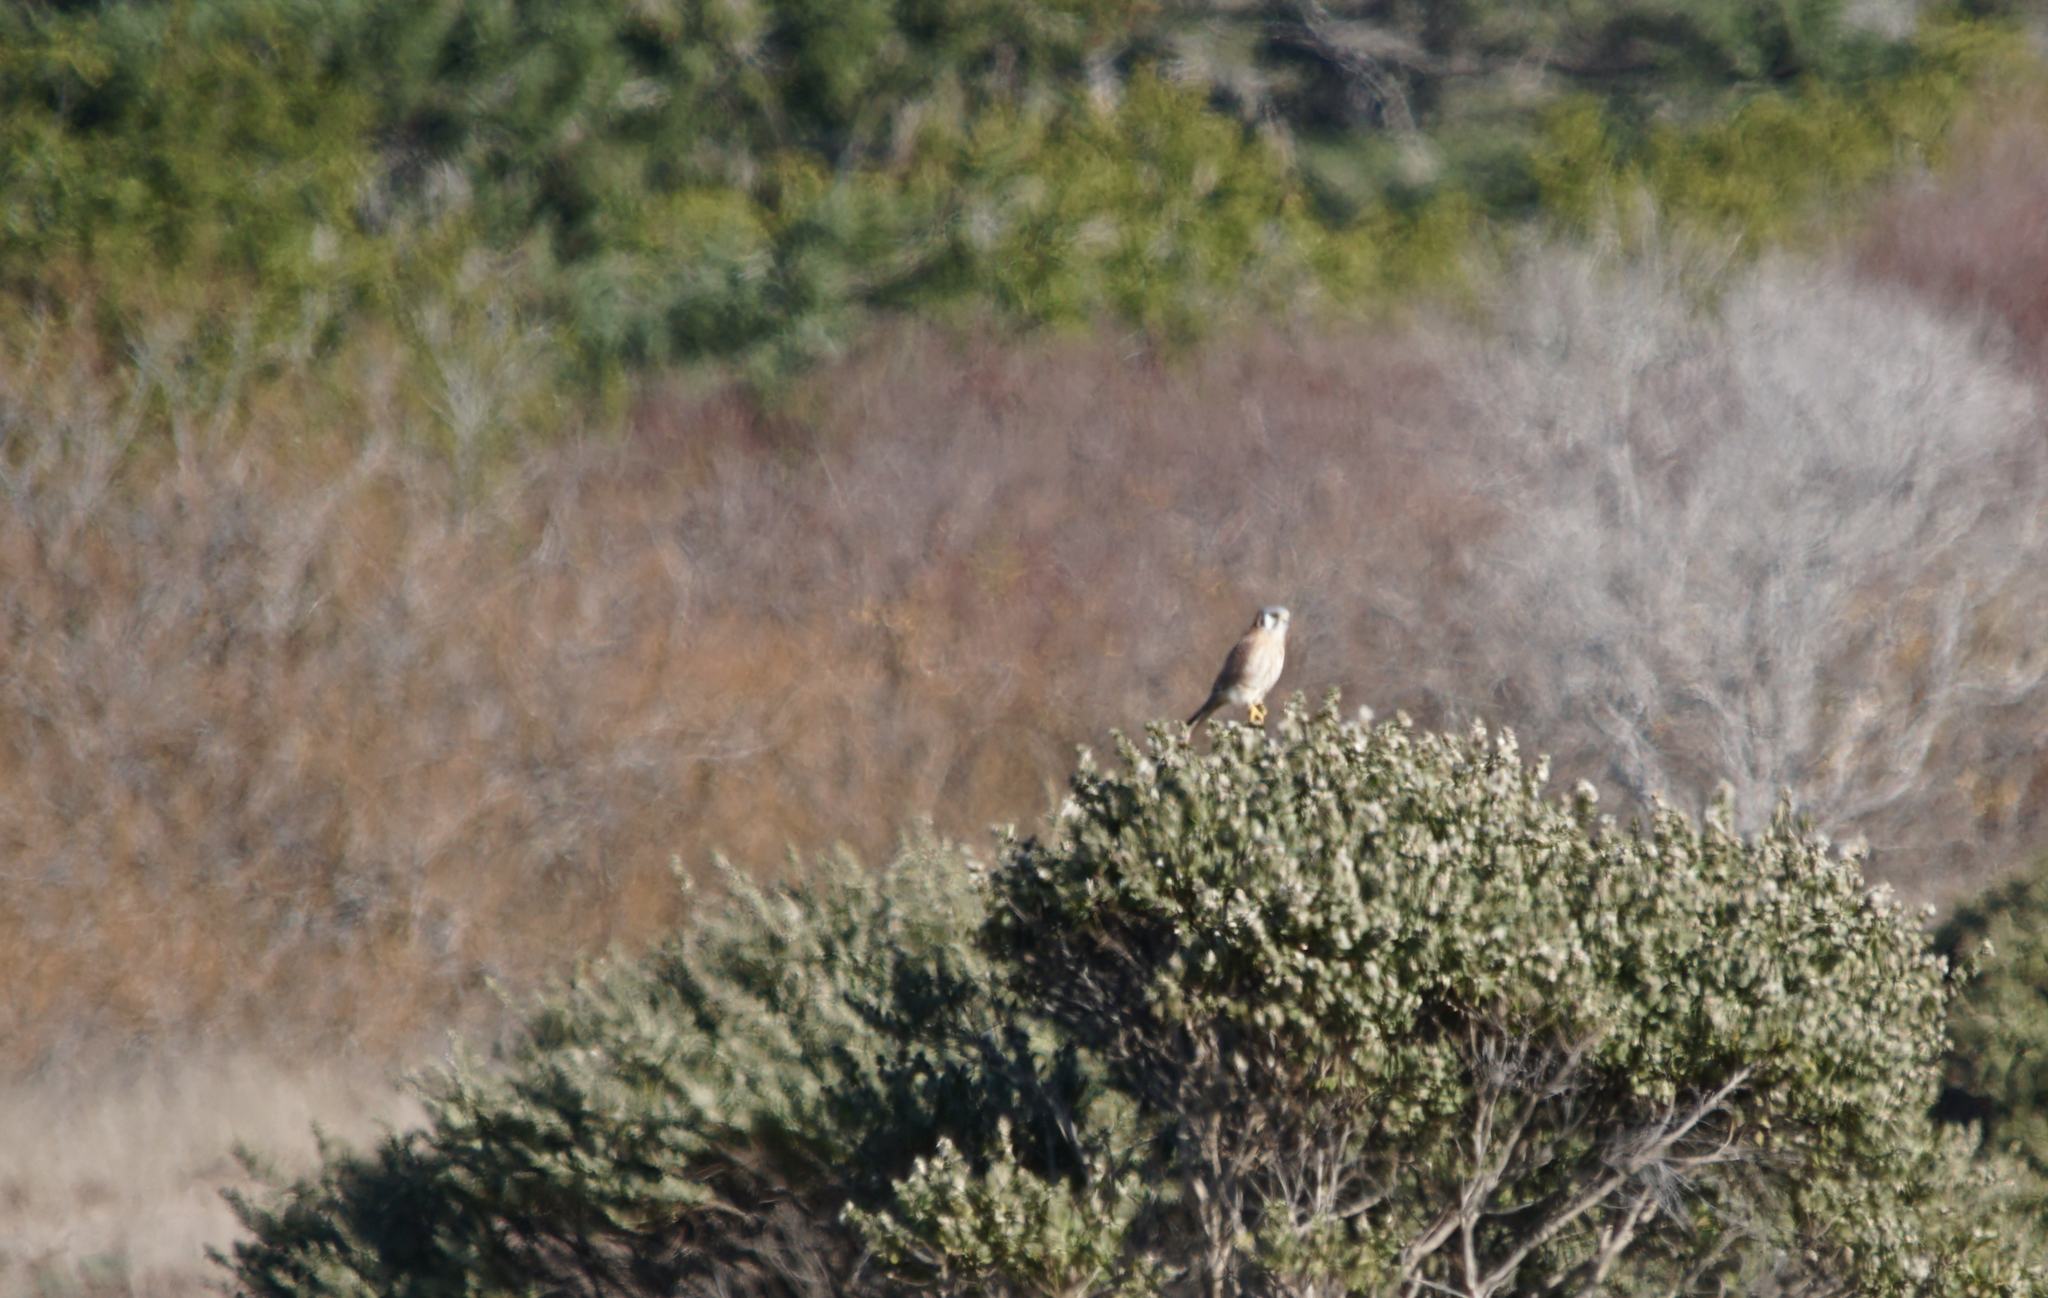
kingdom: Animalia
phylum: Chordata
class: Aves
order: Falconiformes
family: Falconidae
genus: Falco
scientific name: Falco sparverius
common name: American kestrel
